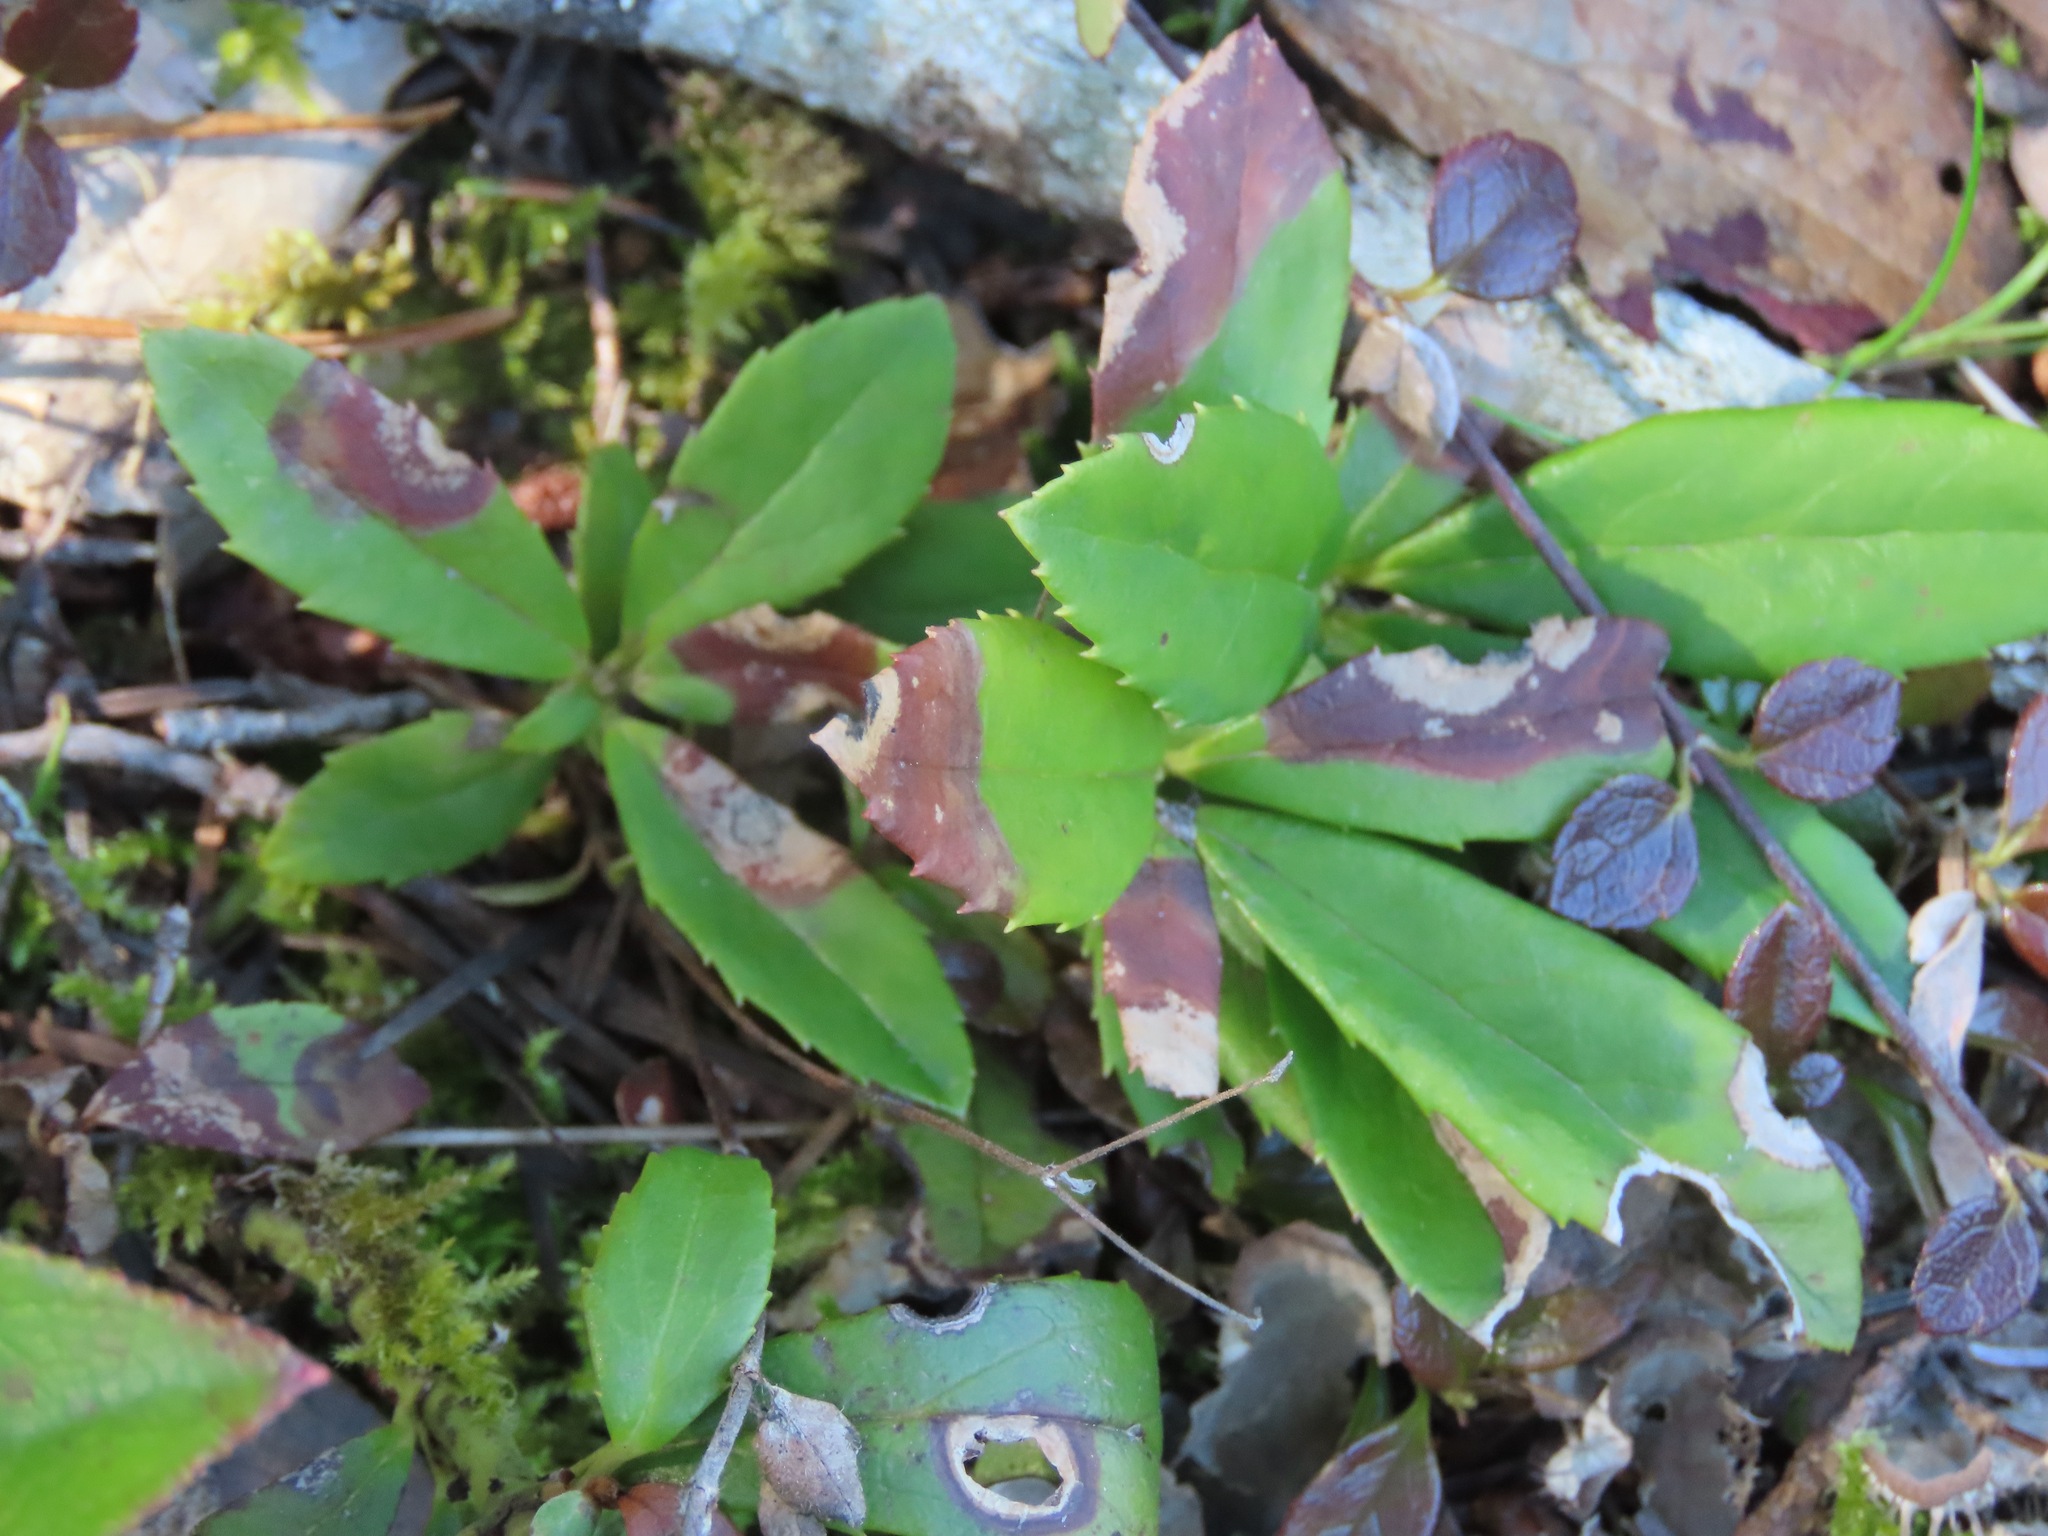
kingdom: Plantae
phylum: Tracheophyta
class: Magnoliopsida
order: Ericales
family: Ericaceae
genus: Chimaphila
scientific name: Chimaphila umbellata
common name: Pipsissewa
